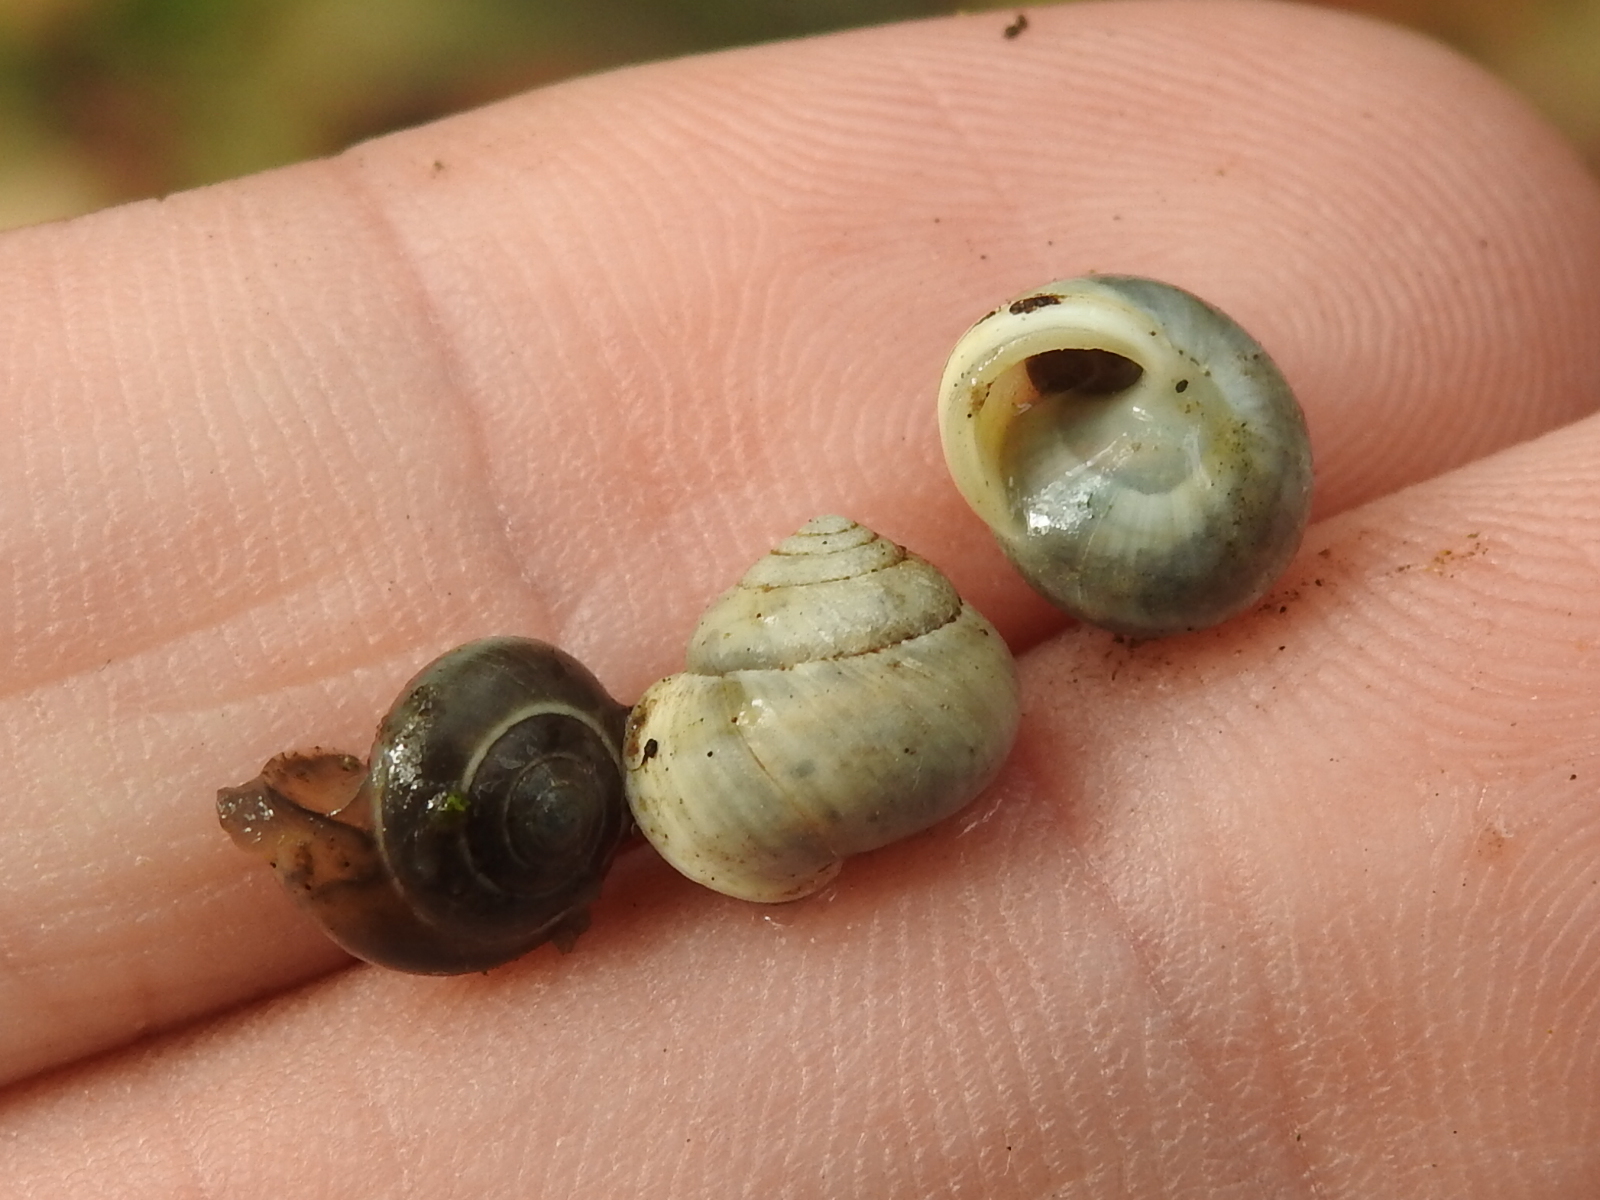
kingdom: Animalia
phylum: Mollusca
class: Gastropoda
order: Cycloneritida
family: Helicinidae
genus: Helicina
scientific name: Helicina orbiculata
